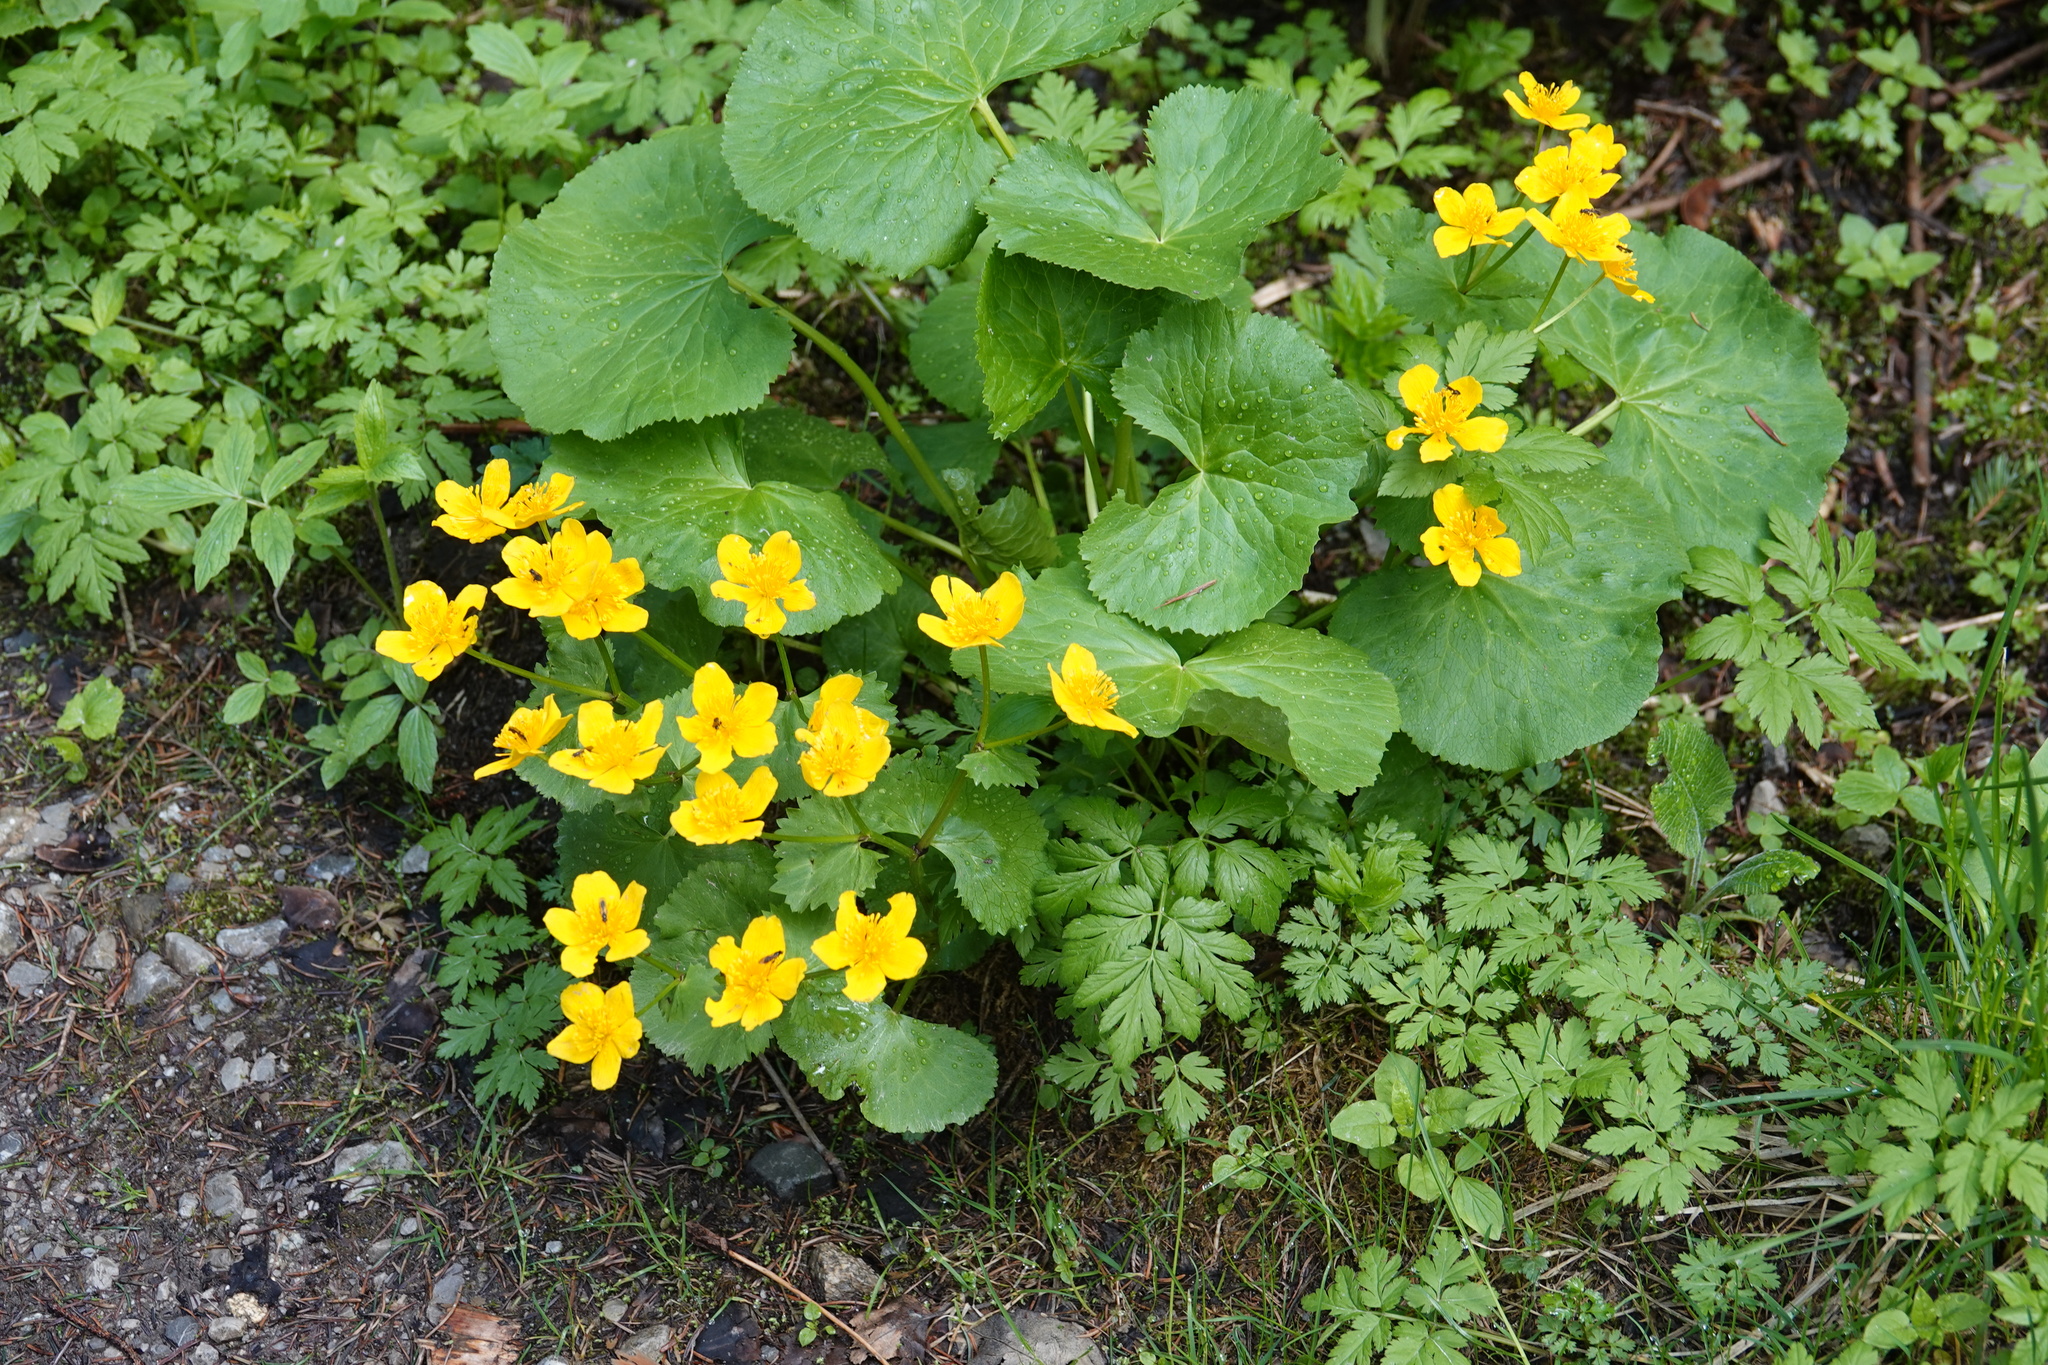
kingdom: Plantae
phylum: Tracheophyta
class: Magnoliopsida
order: Ranunculales
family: Ranunculaceae
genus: Caltha
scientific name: Caltha palustris
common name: Marsh marigold
